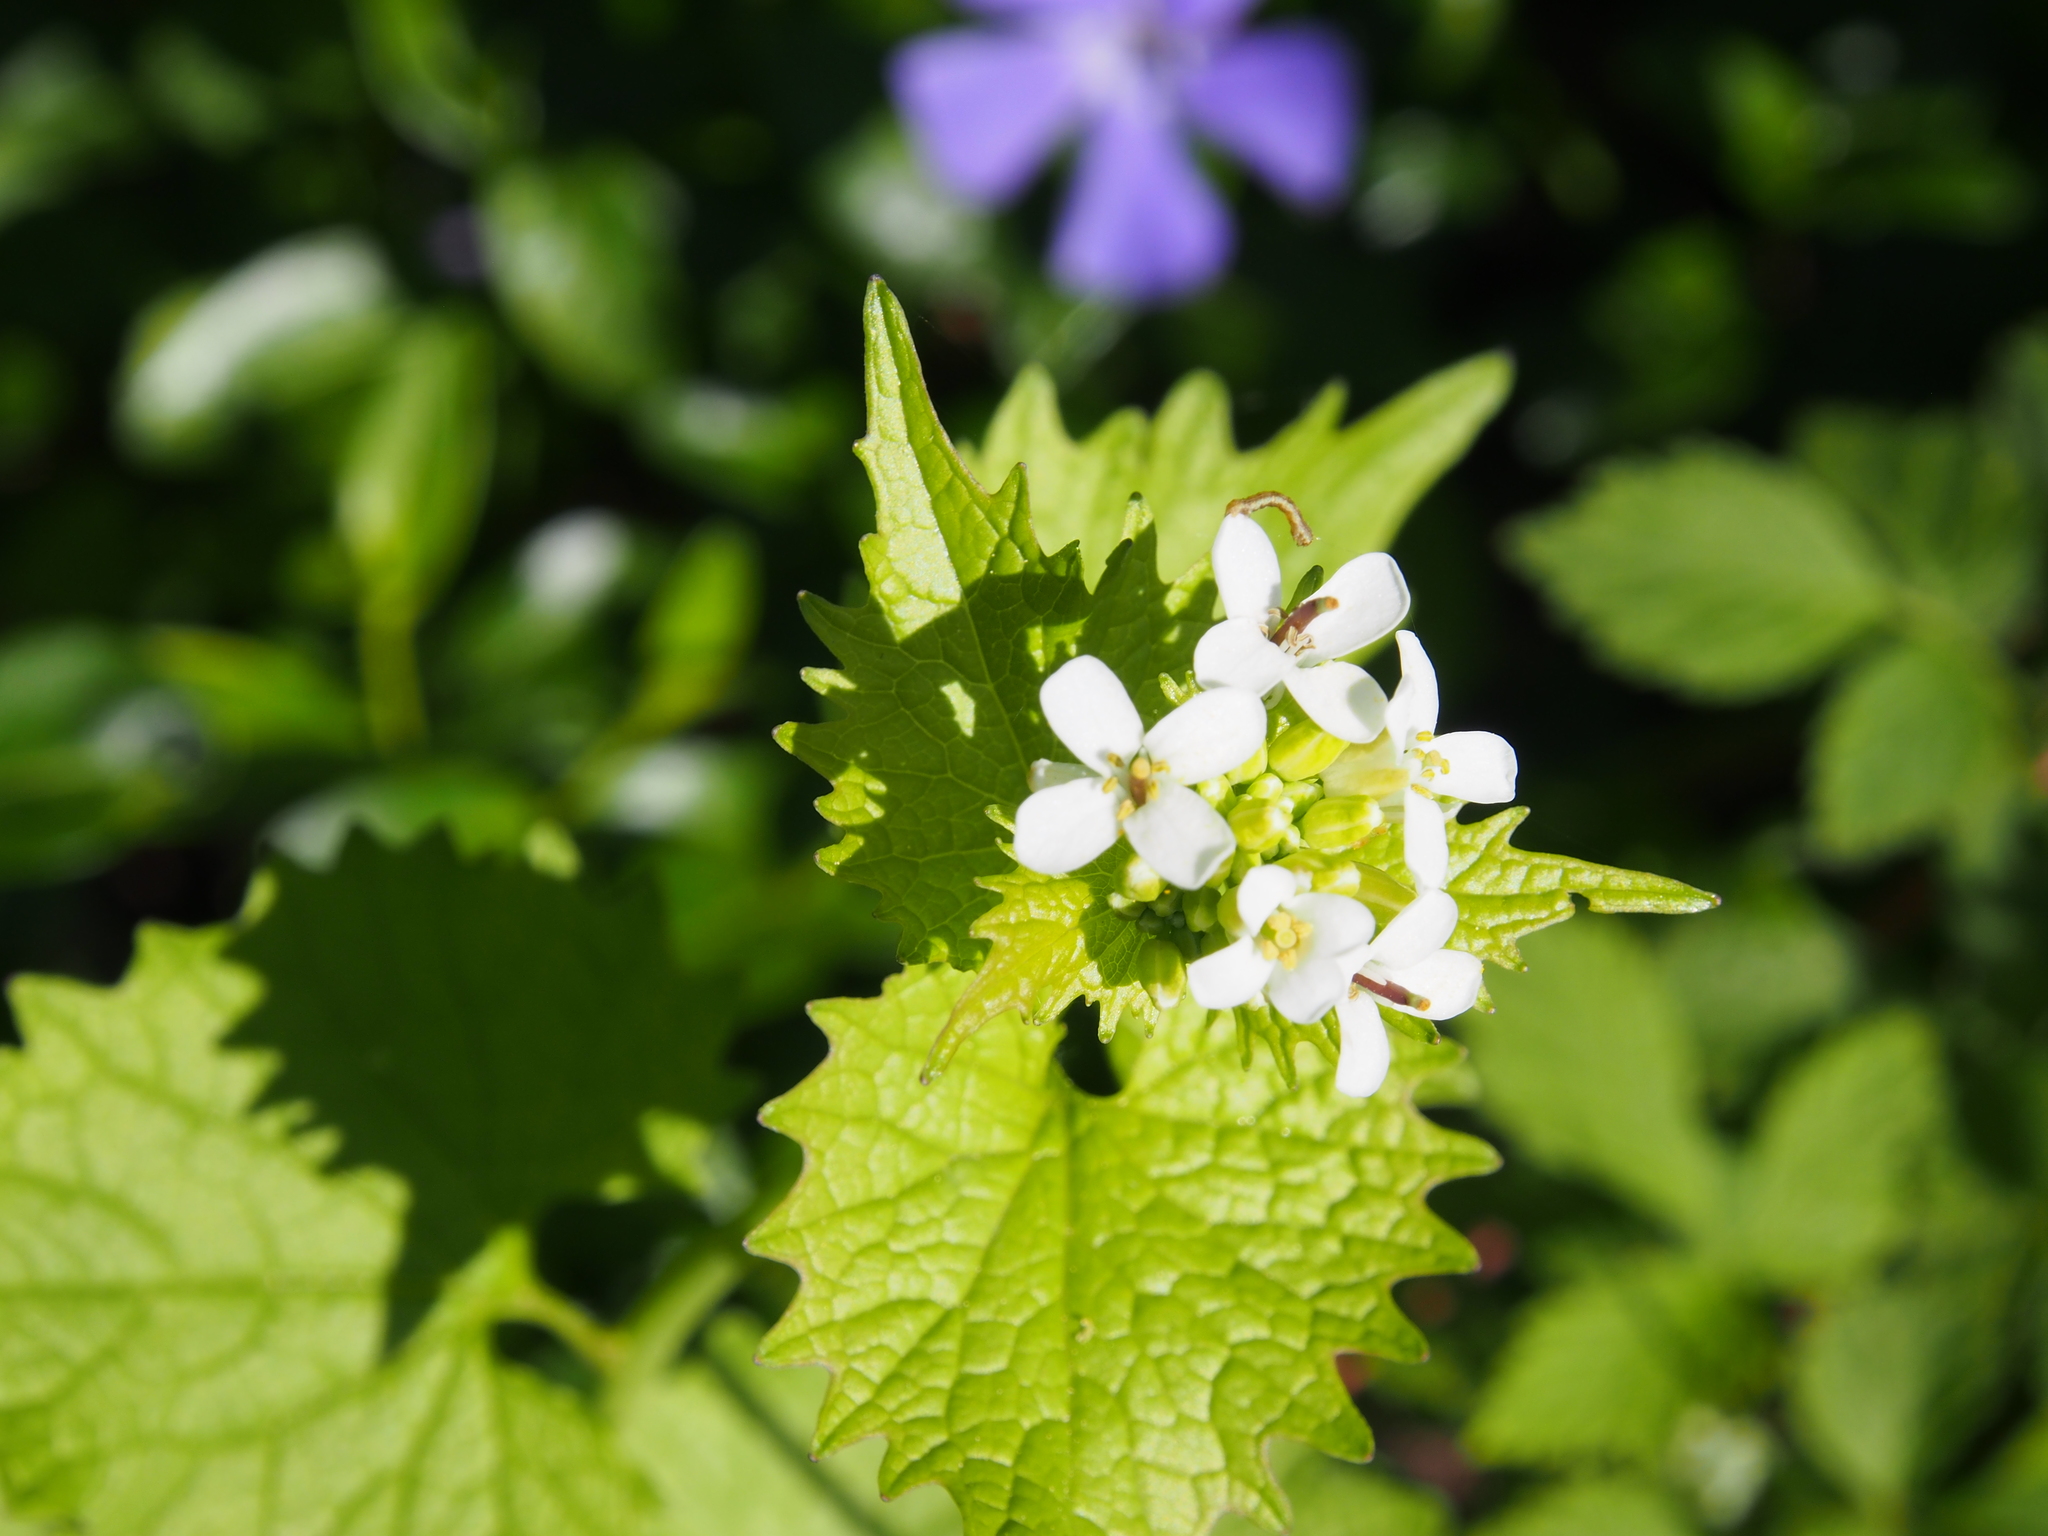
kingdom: Plantae
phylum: Tracheophyta
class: Magnoliopsida
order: Brassicales
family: Brassicaceae
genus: Alliaria
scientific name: Alliaria petiolata
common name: Garlic mustard
